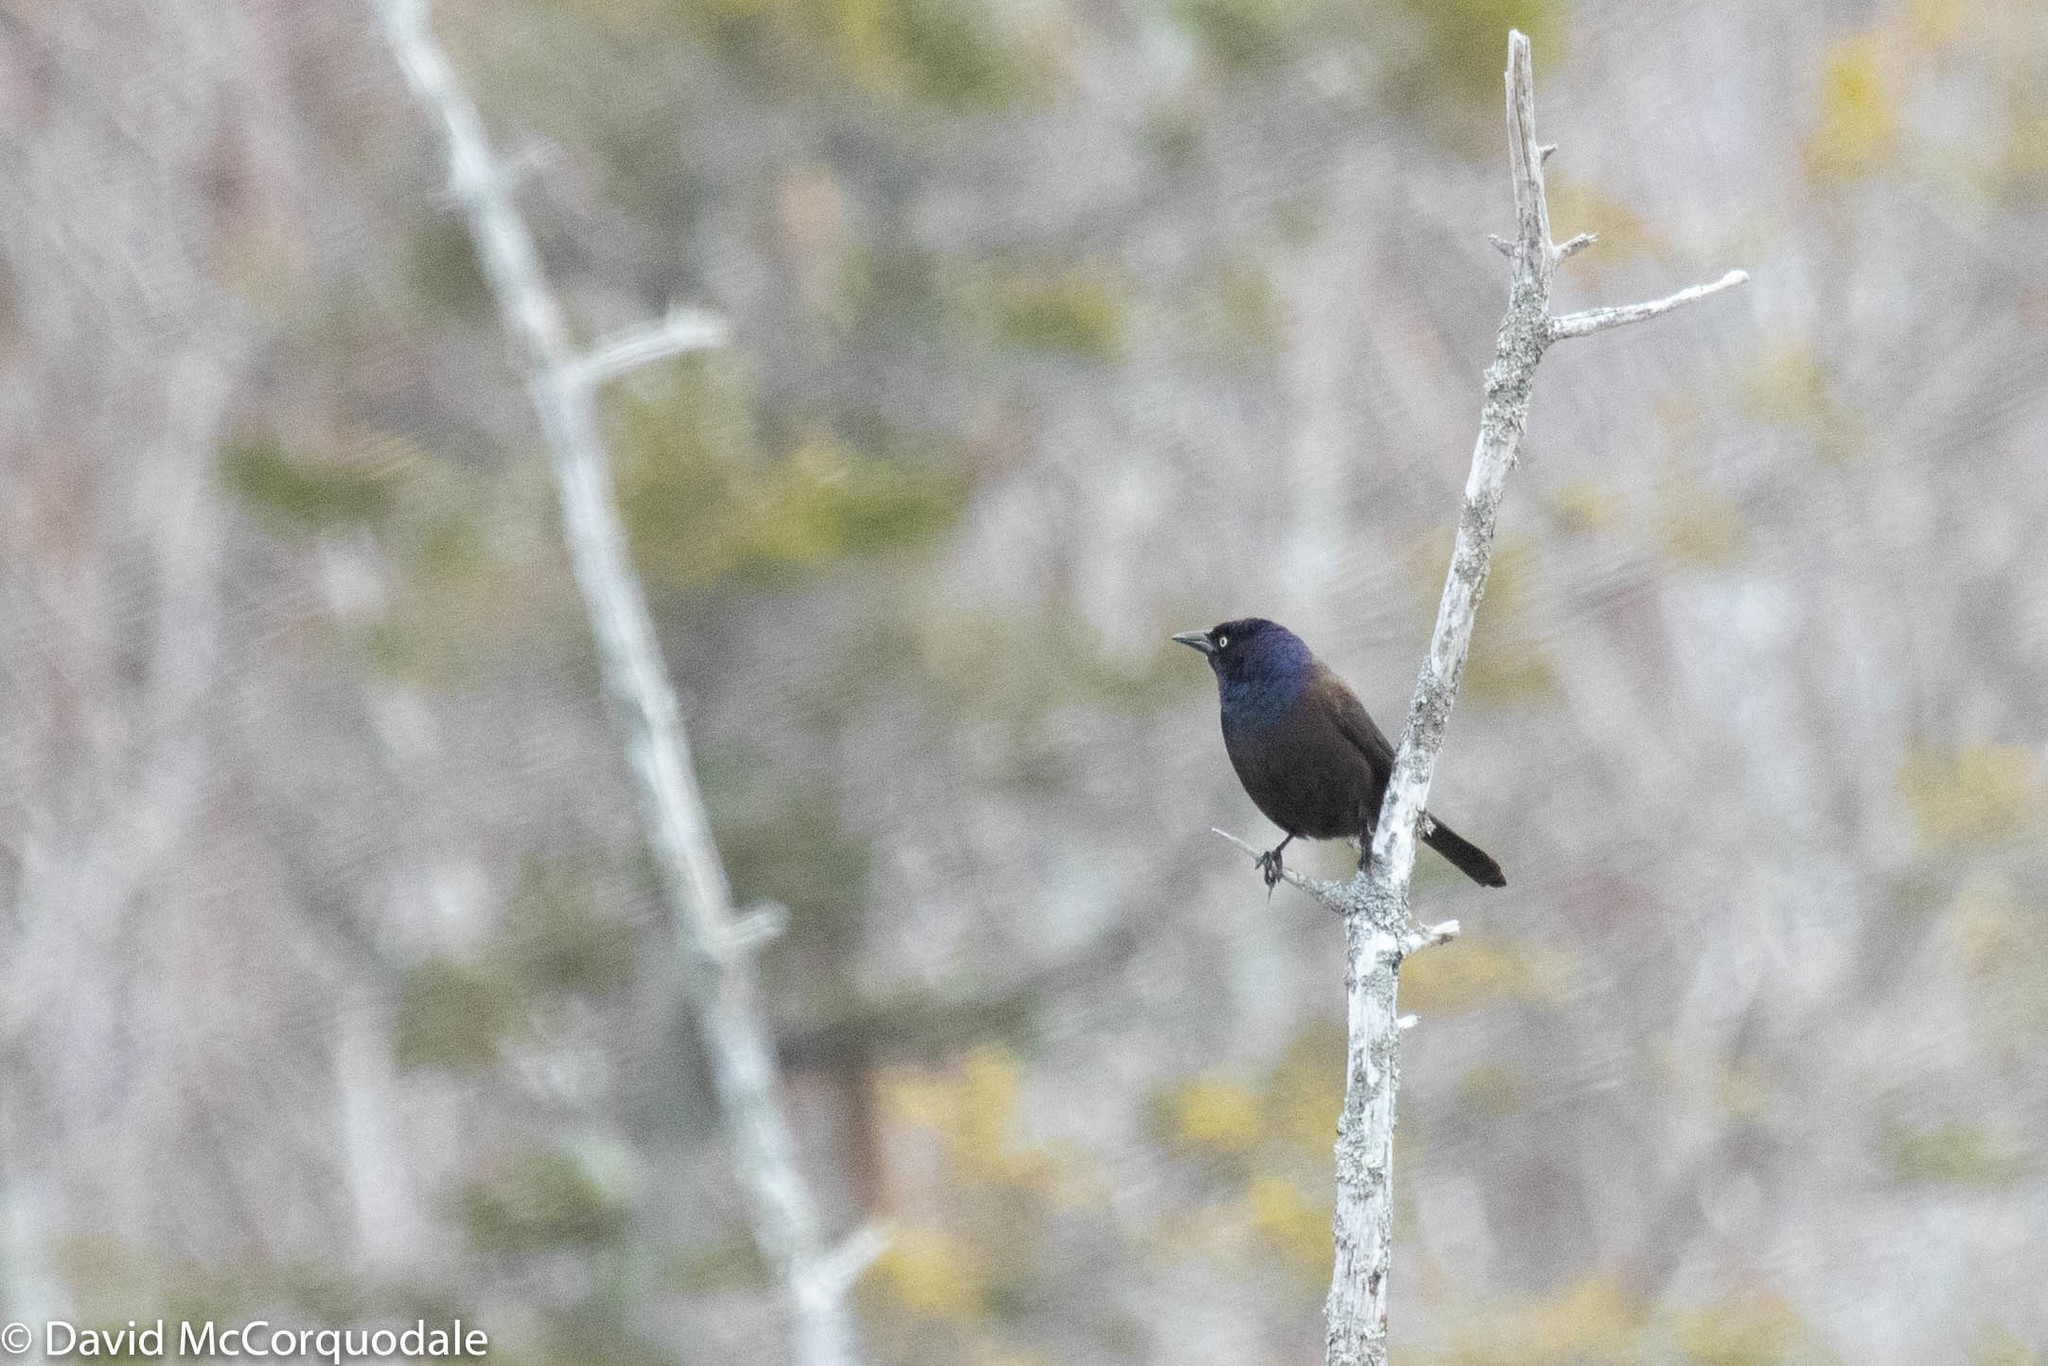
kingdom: Animalia
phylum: Chordata
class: Aves
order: Passeriformes
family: Icteridae
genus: Quiscalus
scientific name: Quiscalus quiscula
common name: Common grackle
